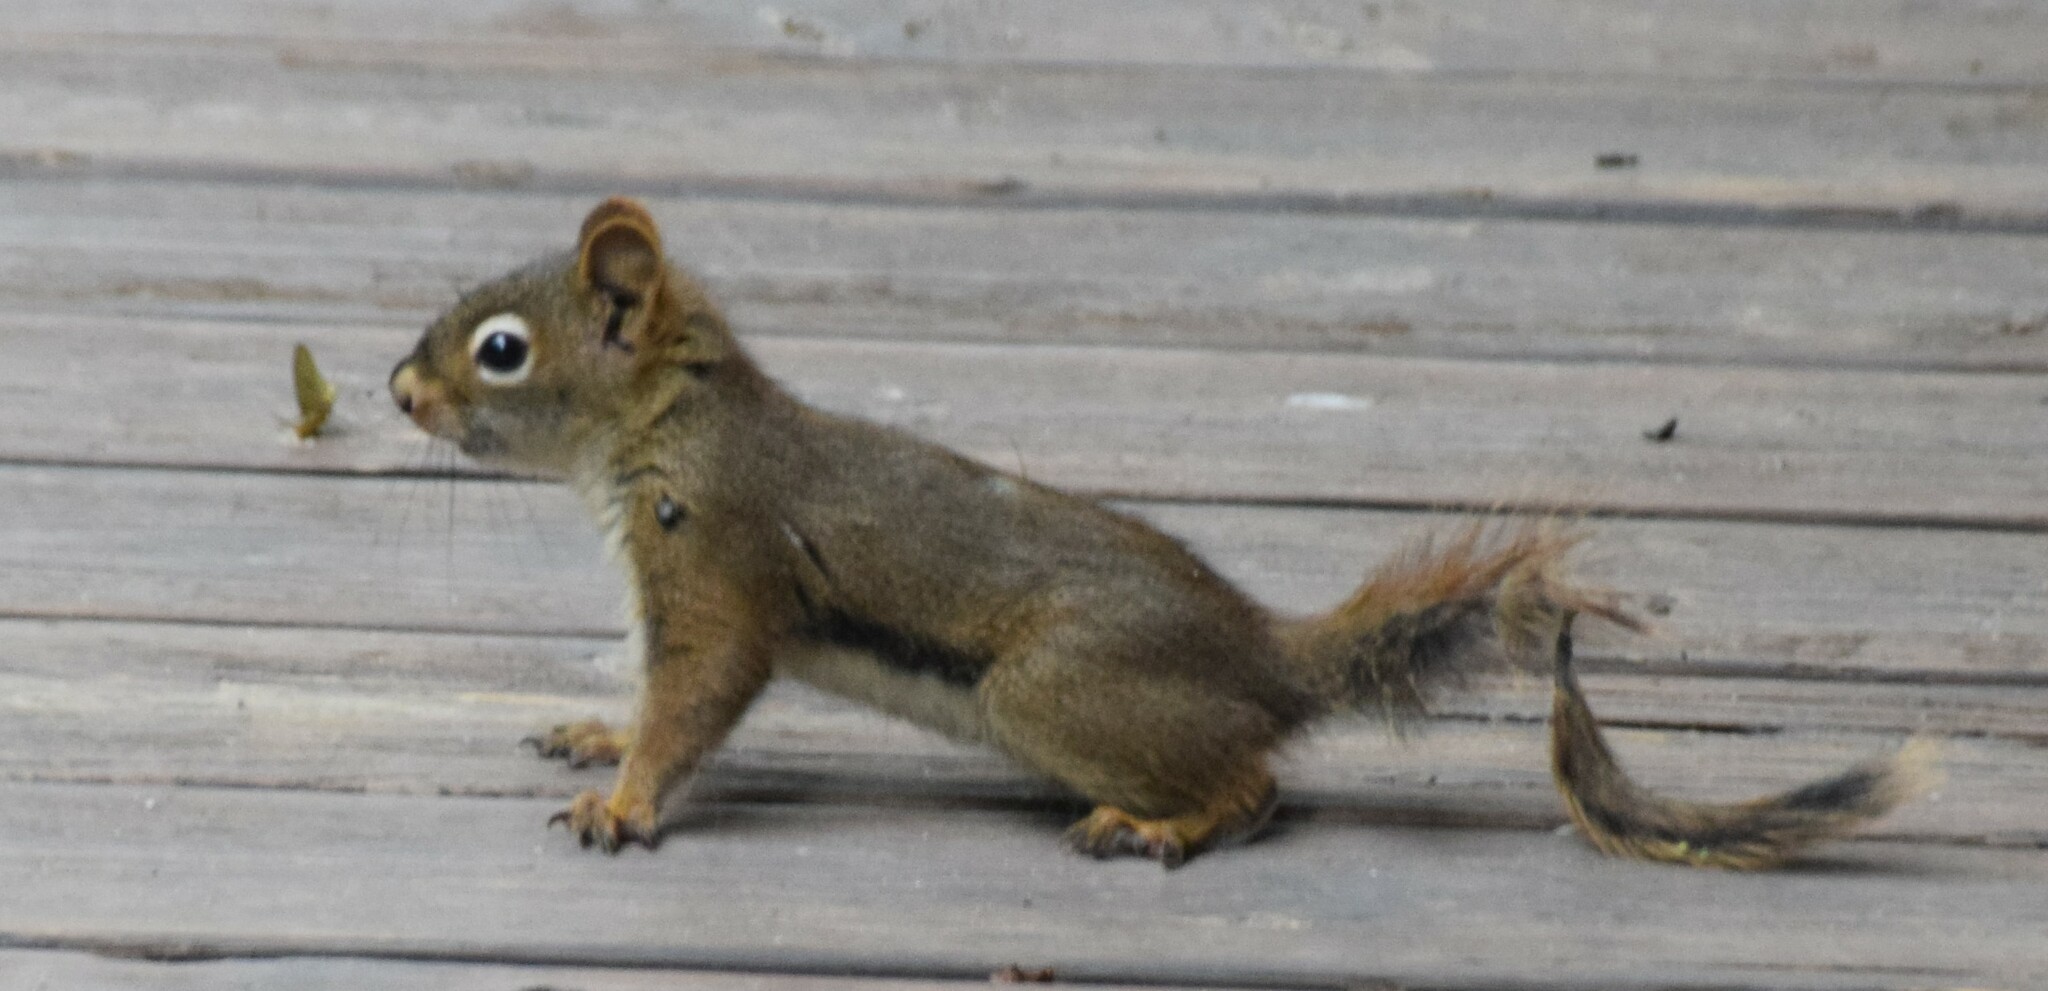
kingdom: Animalia
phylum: Chordata
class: Mammalia
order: Rodentia
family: Sciuridae
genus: Tamiasciurus
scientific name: Tamiasciurus hudsonicus
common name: Red squirrel
